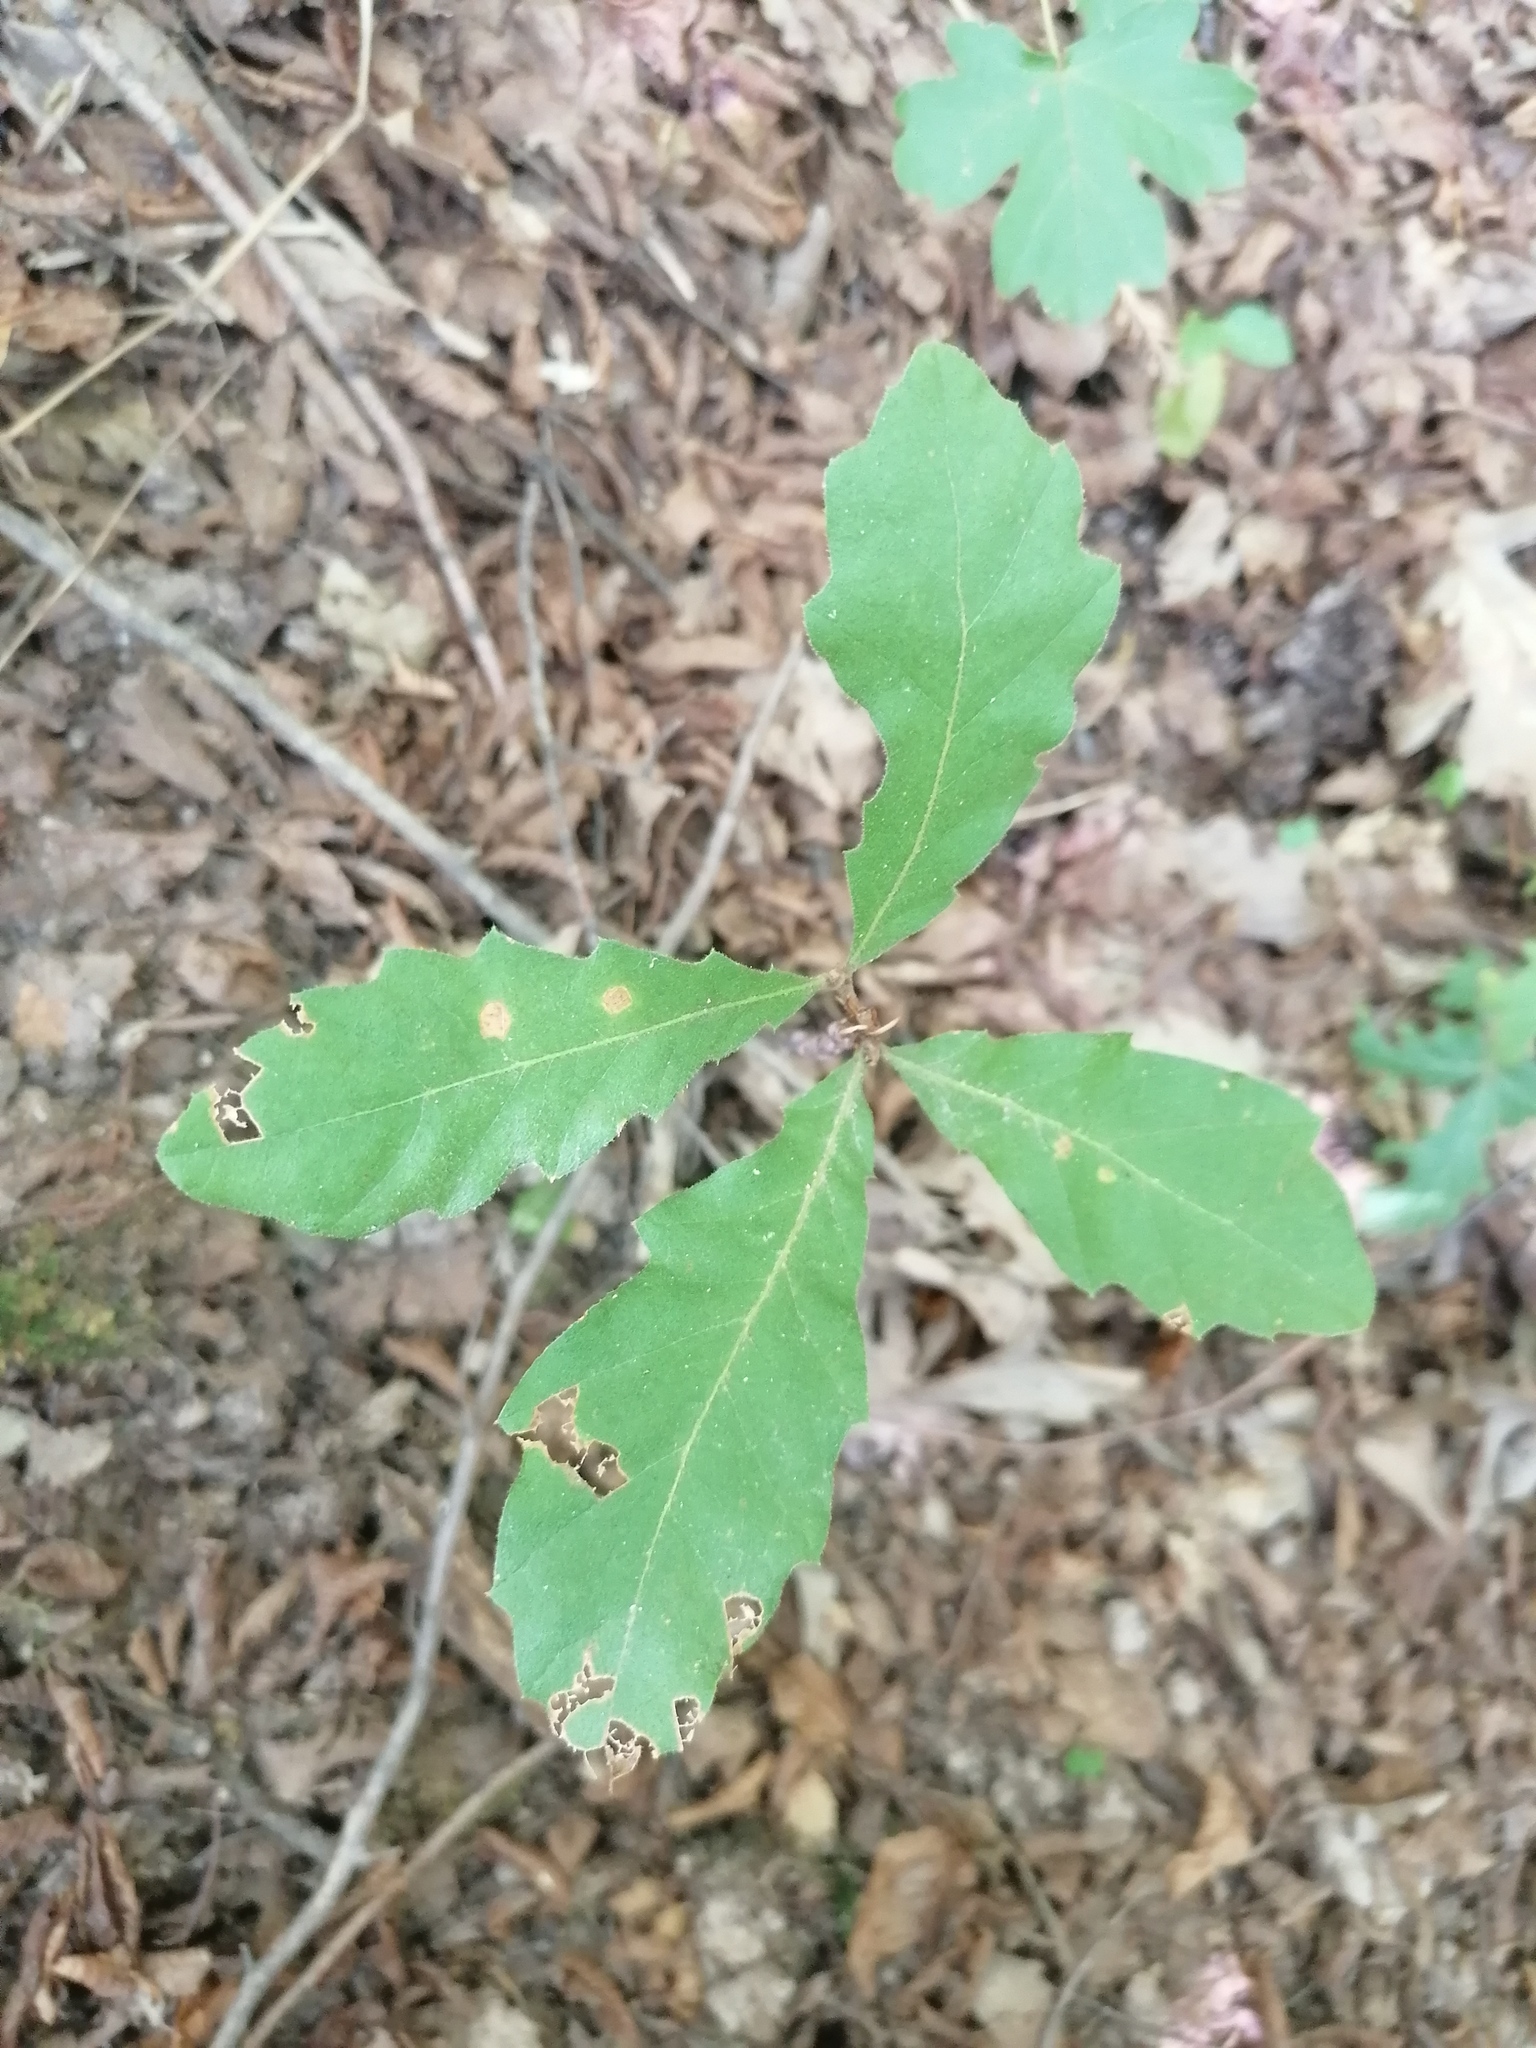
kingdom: Plantae
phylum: Tracheophyta
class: Magnoliopsida
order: Fagales
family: Fagaceae
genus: Quercus
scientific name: Quercus cerris
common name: Turkey oak
